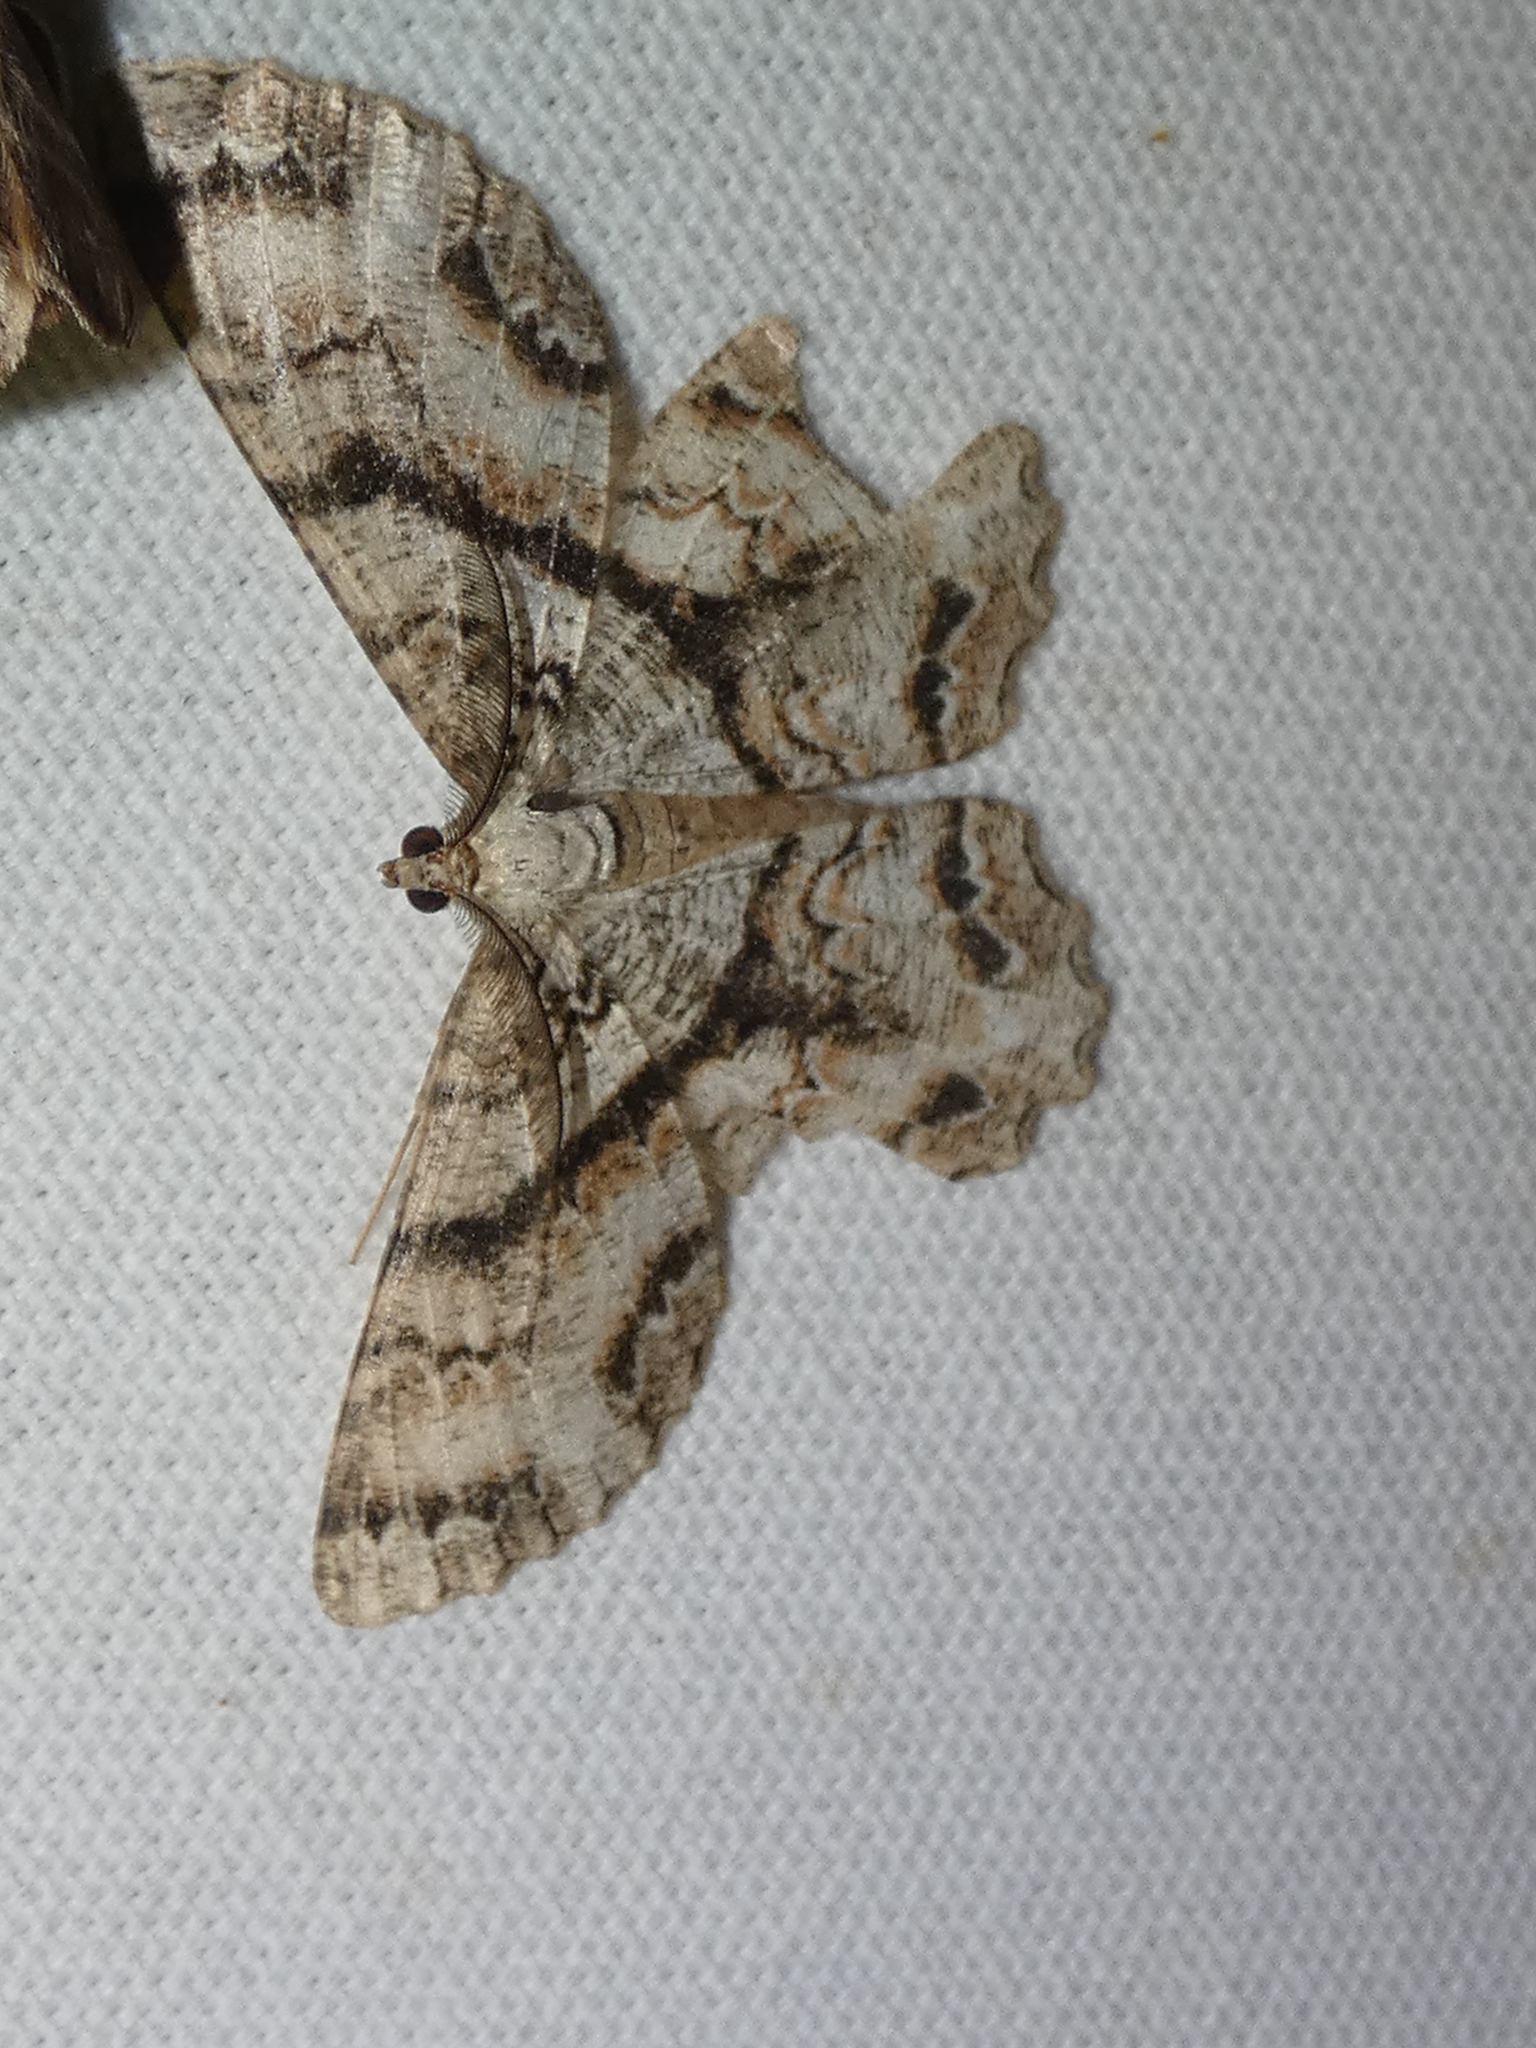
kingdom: Animalia
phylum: Arthropoda
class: Insecta
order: Lepidoptera
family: Geometridae
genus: Epimecis
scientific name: Epimecis hortaria
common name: Tulip-tree beauty
